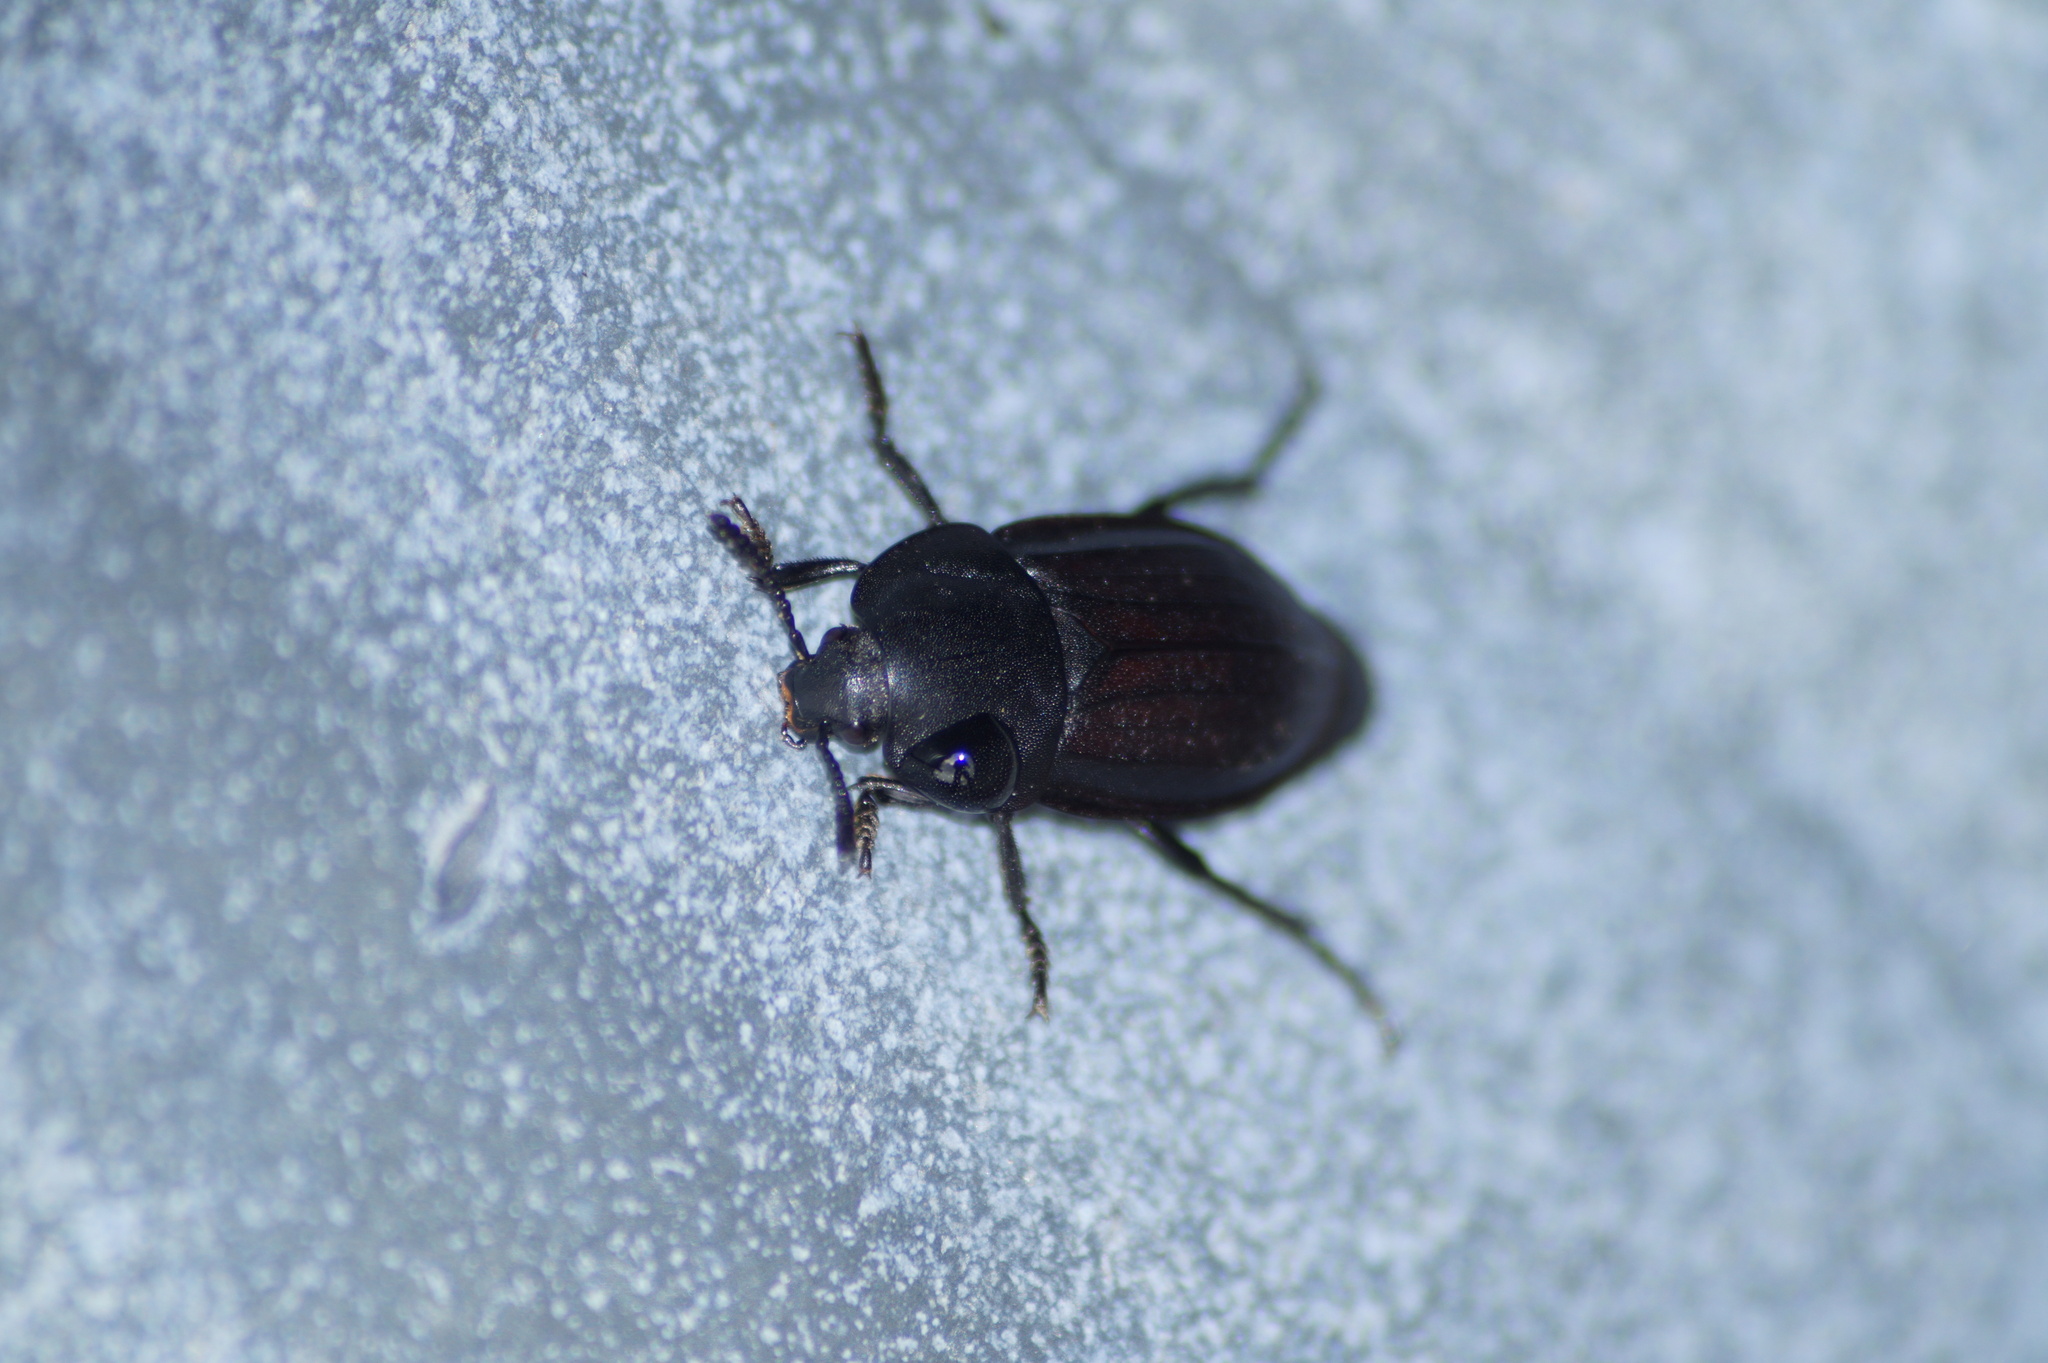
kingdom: Animalia
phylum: Arthropoda
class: Insecta
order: Coleoptera
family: Staphylinidae
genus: Silpha
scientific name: Silpha tyrolensis
